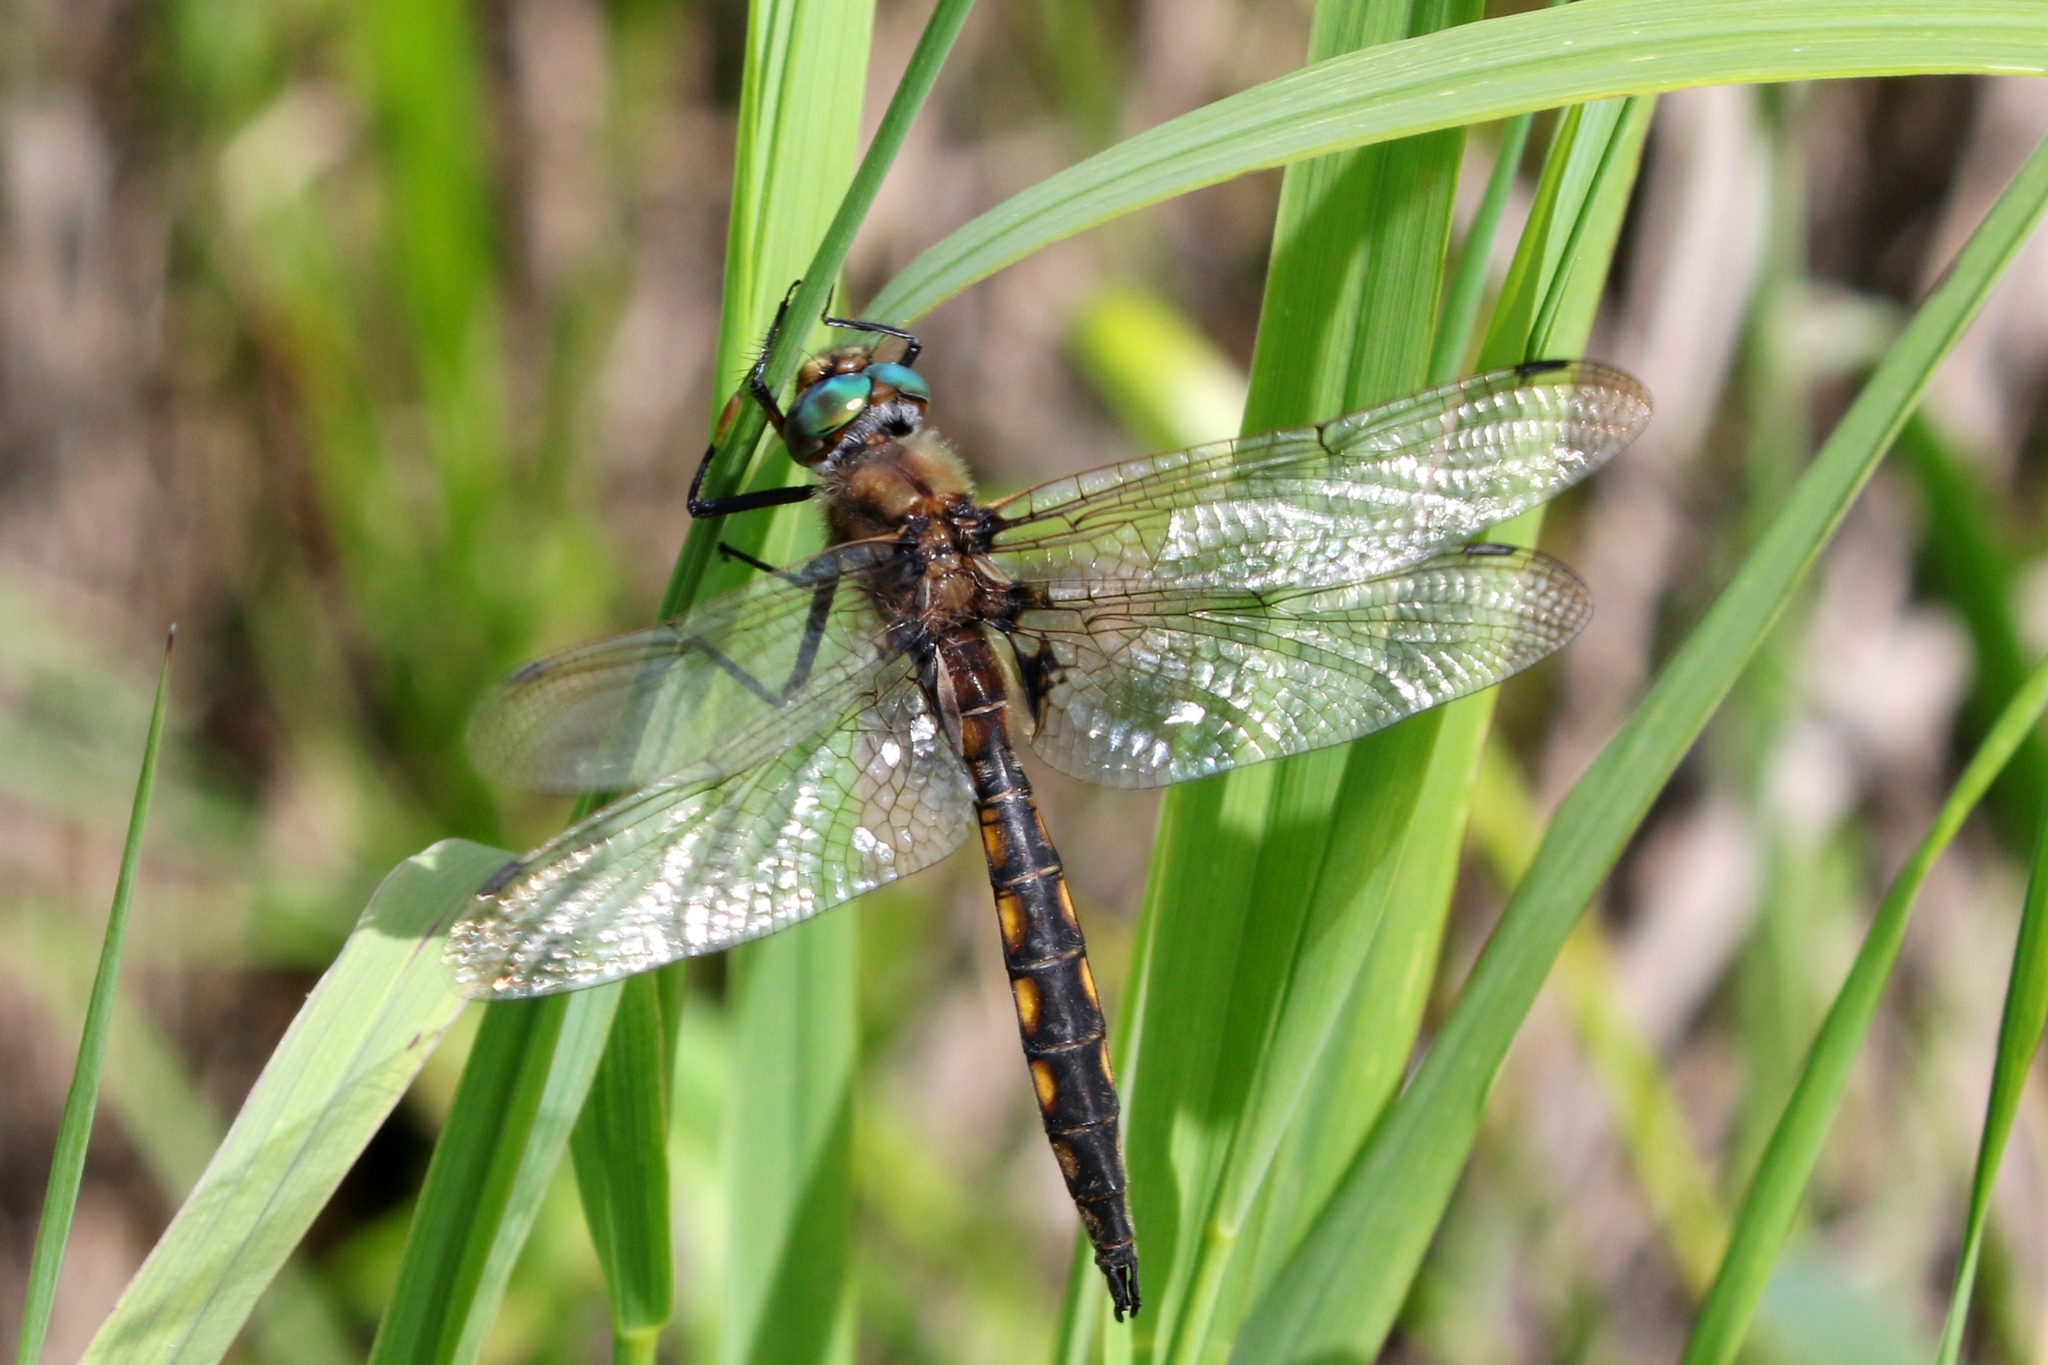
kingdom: Animalia
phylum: Arthropoda
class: Insecta
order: Odonata
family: Corduliidae
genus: Epitheca
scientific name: Epitheca canis
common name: Beaverpond baskettail
